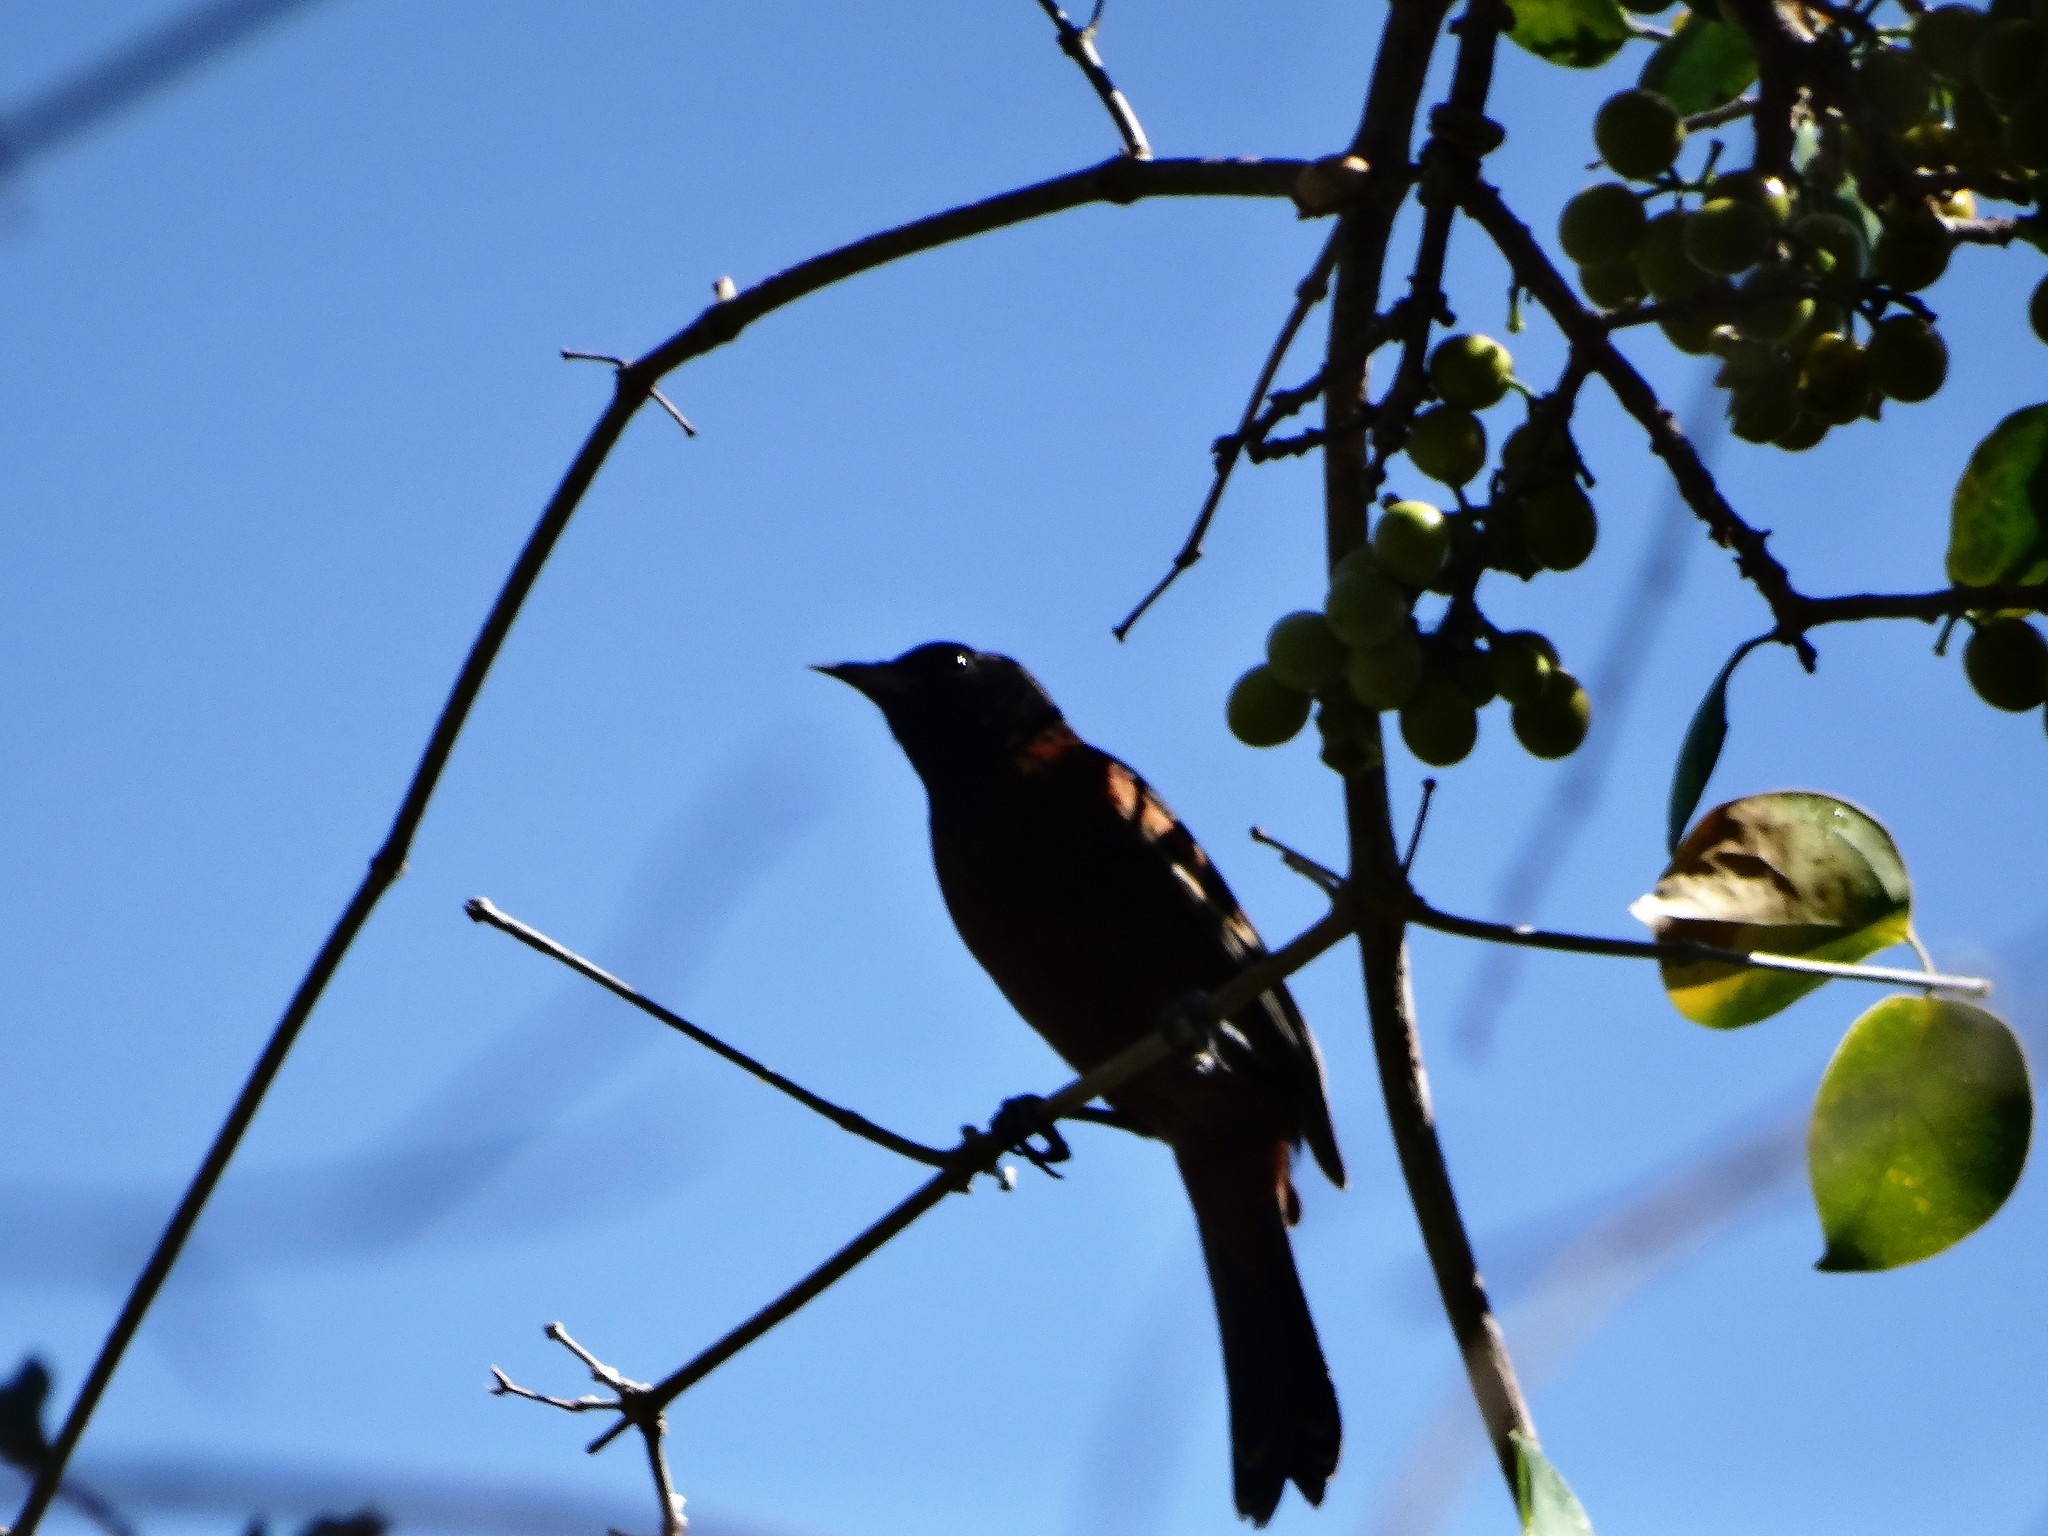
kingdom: Animalia
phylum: Chordata
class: Aves
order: Passeriformes
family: Icteridae
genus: Icterus
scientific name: Icterus spurius
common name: Orchard oriole
